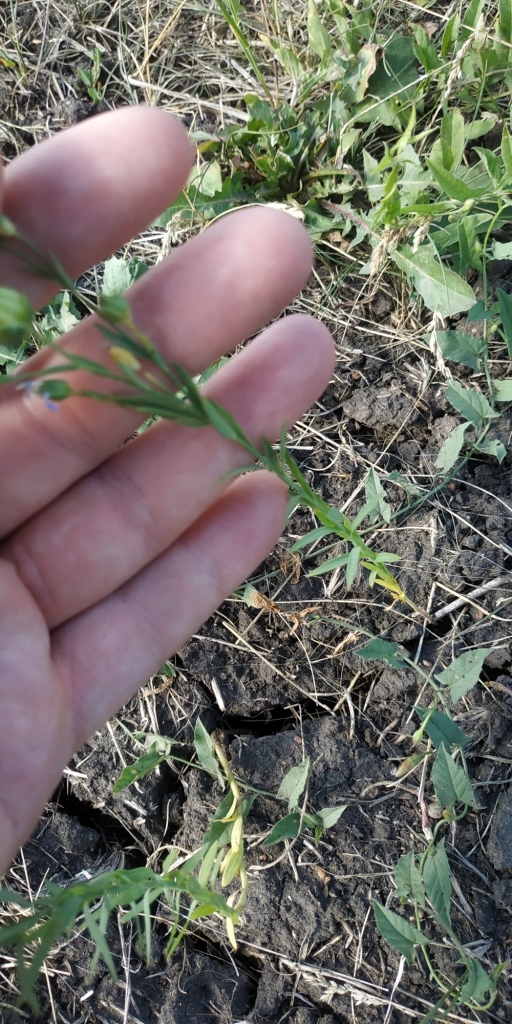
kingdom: Plantae
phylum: Tracheophyta
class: Magnoliopsida
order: Malpighiales
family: Linaceae
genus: Linum
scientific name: Linum usitatissimum
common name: Flax
